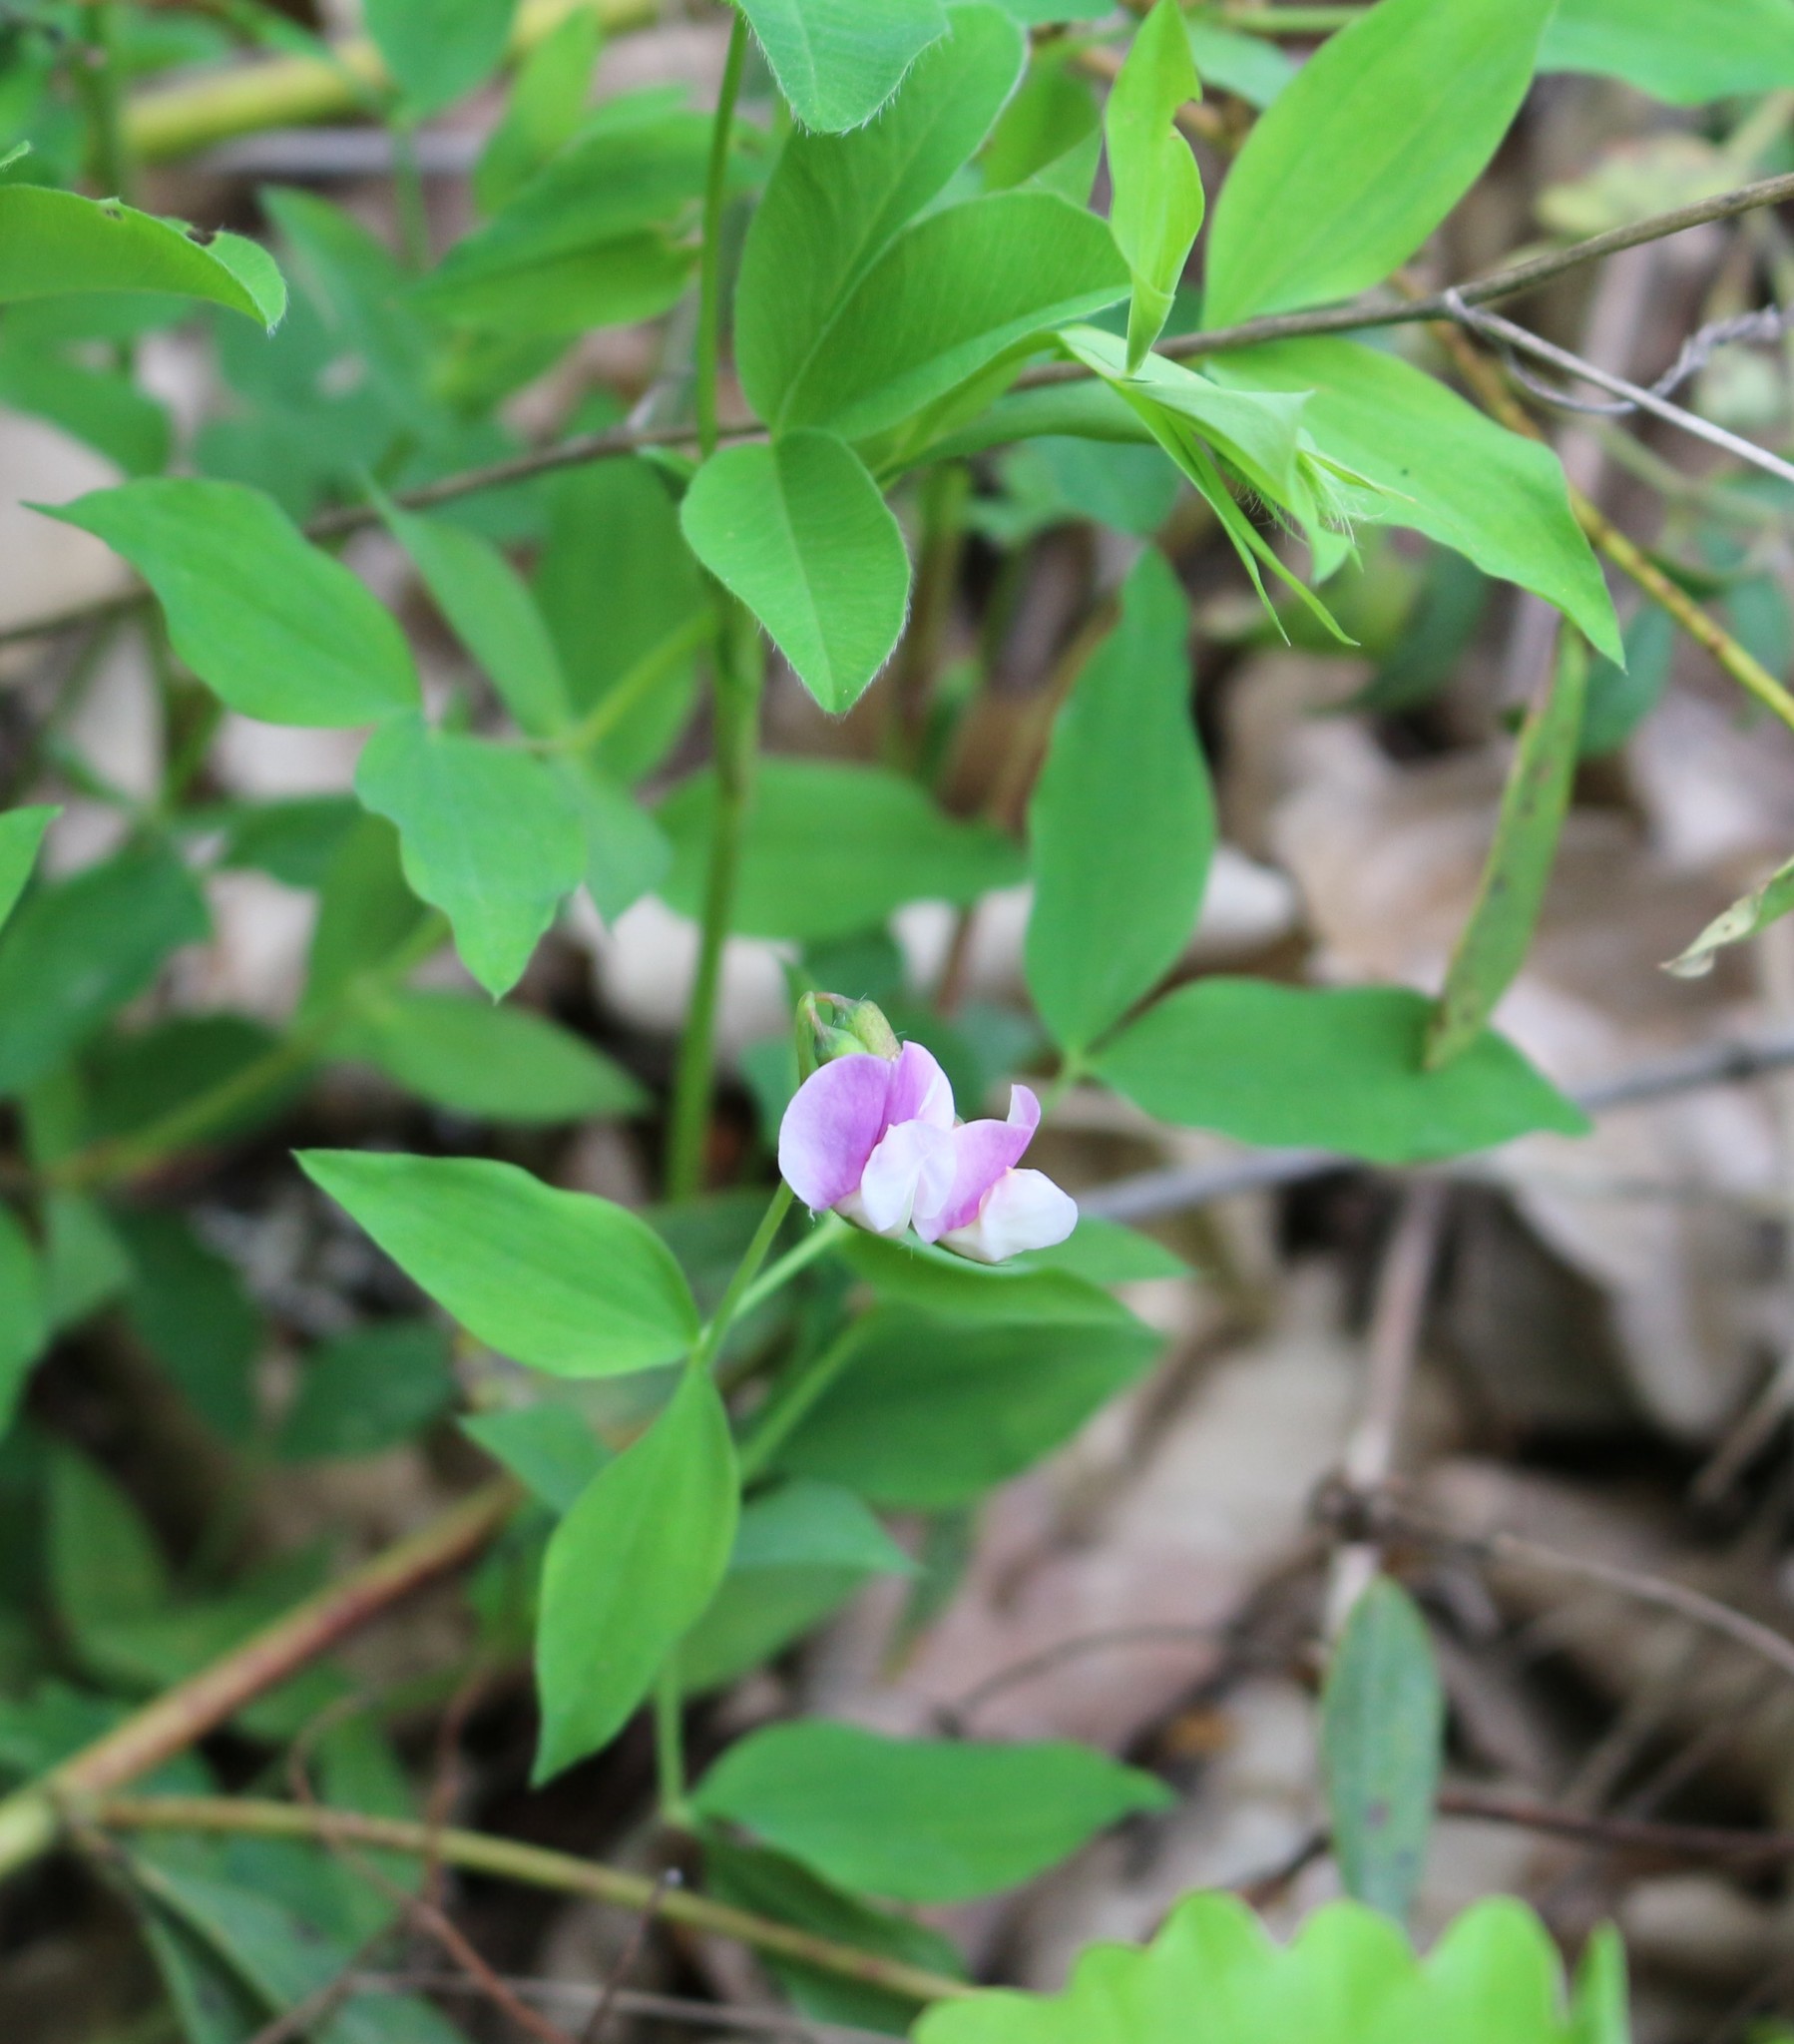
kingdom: Plantae
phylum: Tracheophyta
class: Magnoliopsida
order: Fabales
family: Fabaceae
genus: Lathyrus
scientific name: Lathyrus laxiflorus
